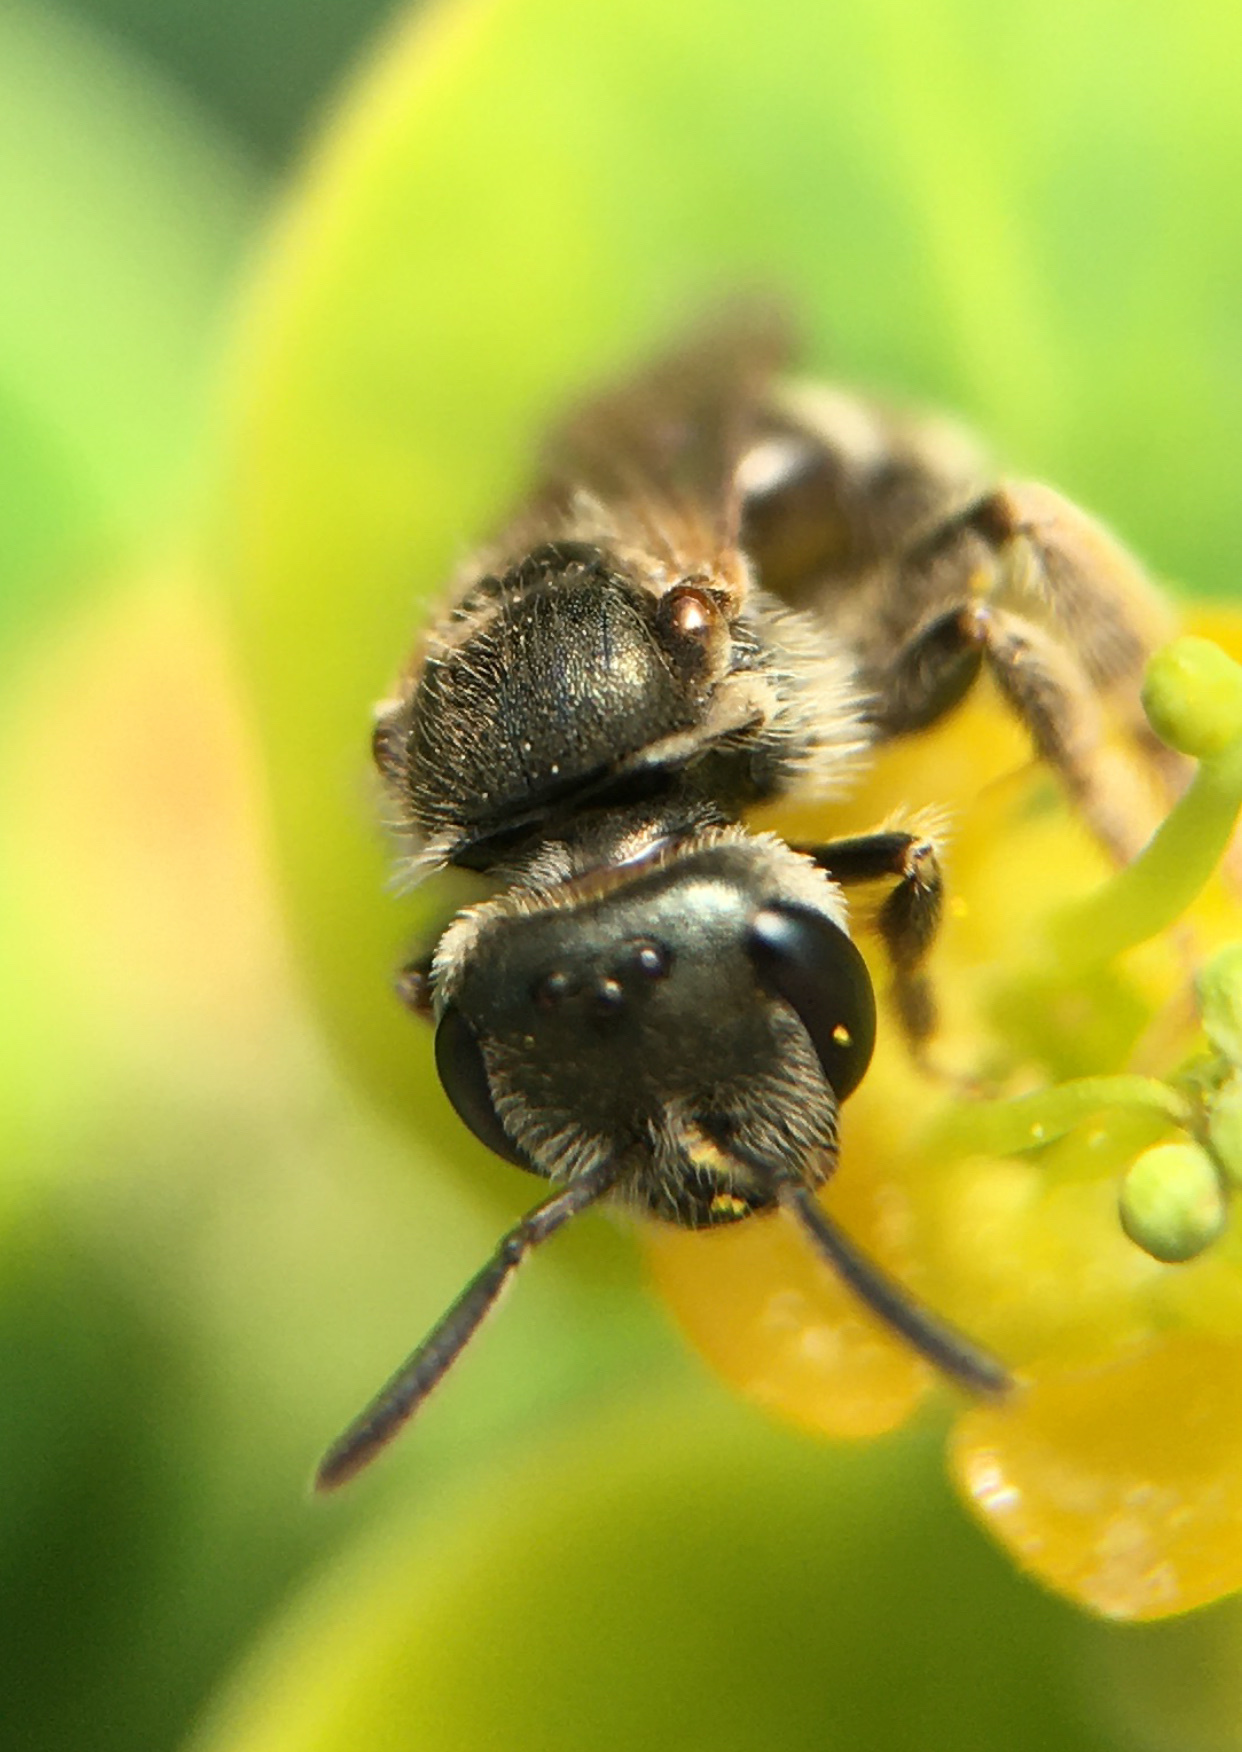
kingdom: Animalia
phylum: Arthropoda
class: Insecta
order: Hymenoptera
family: Halictidae
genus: Halictus
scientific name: Halictus tripartitus
